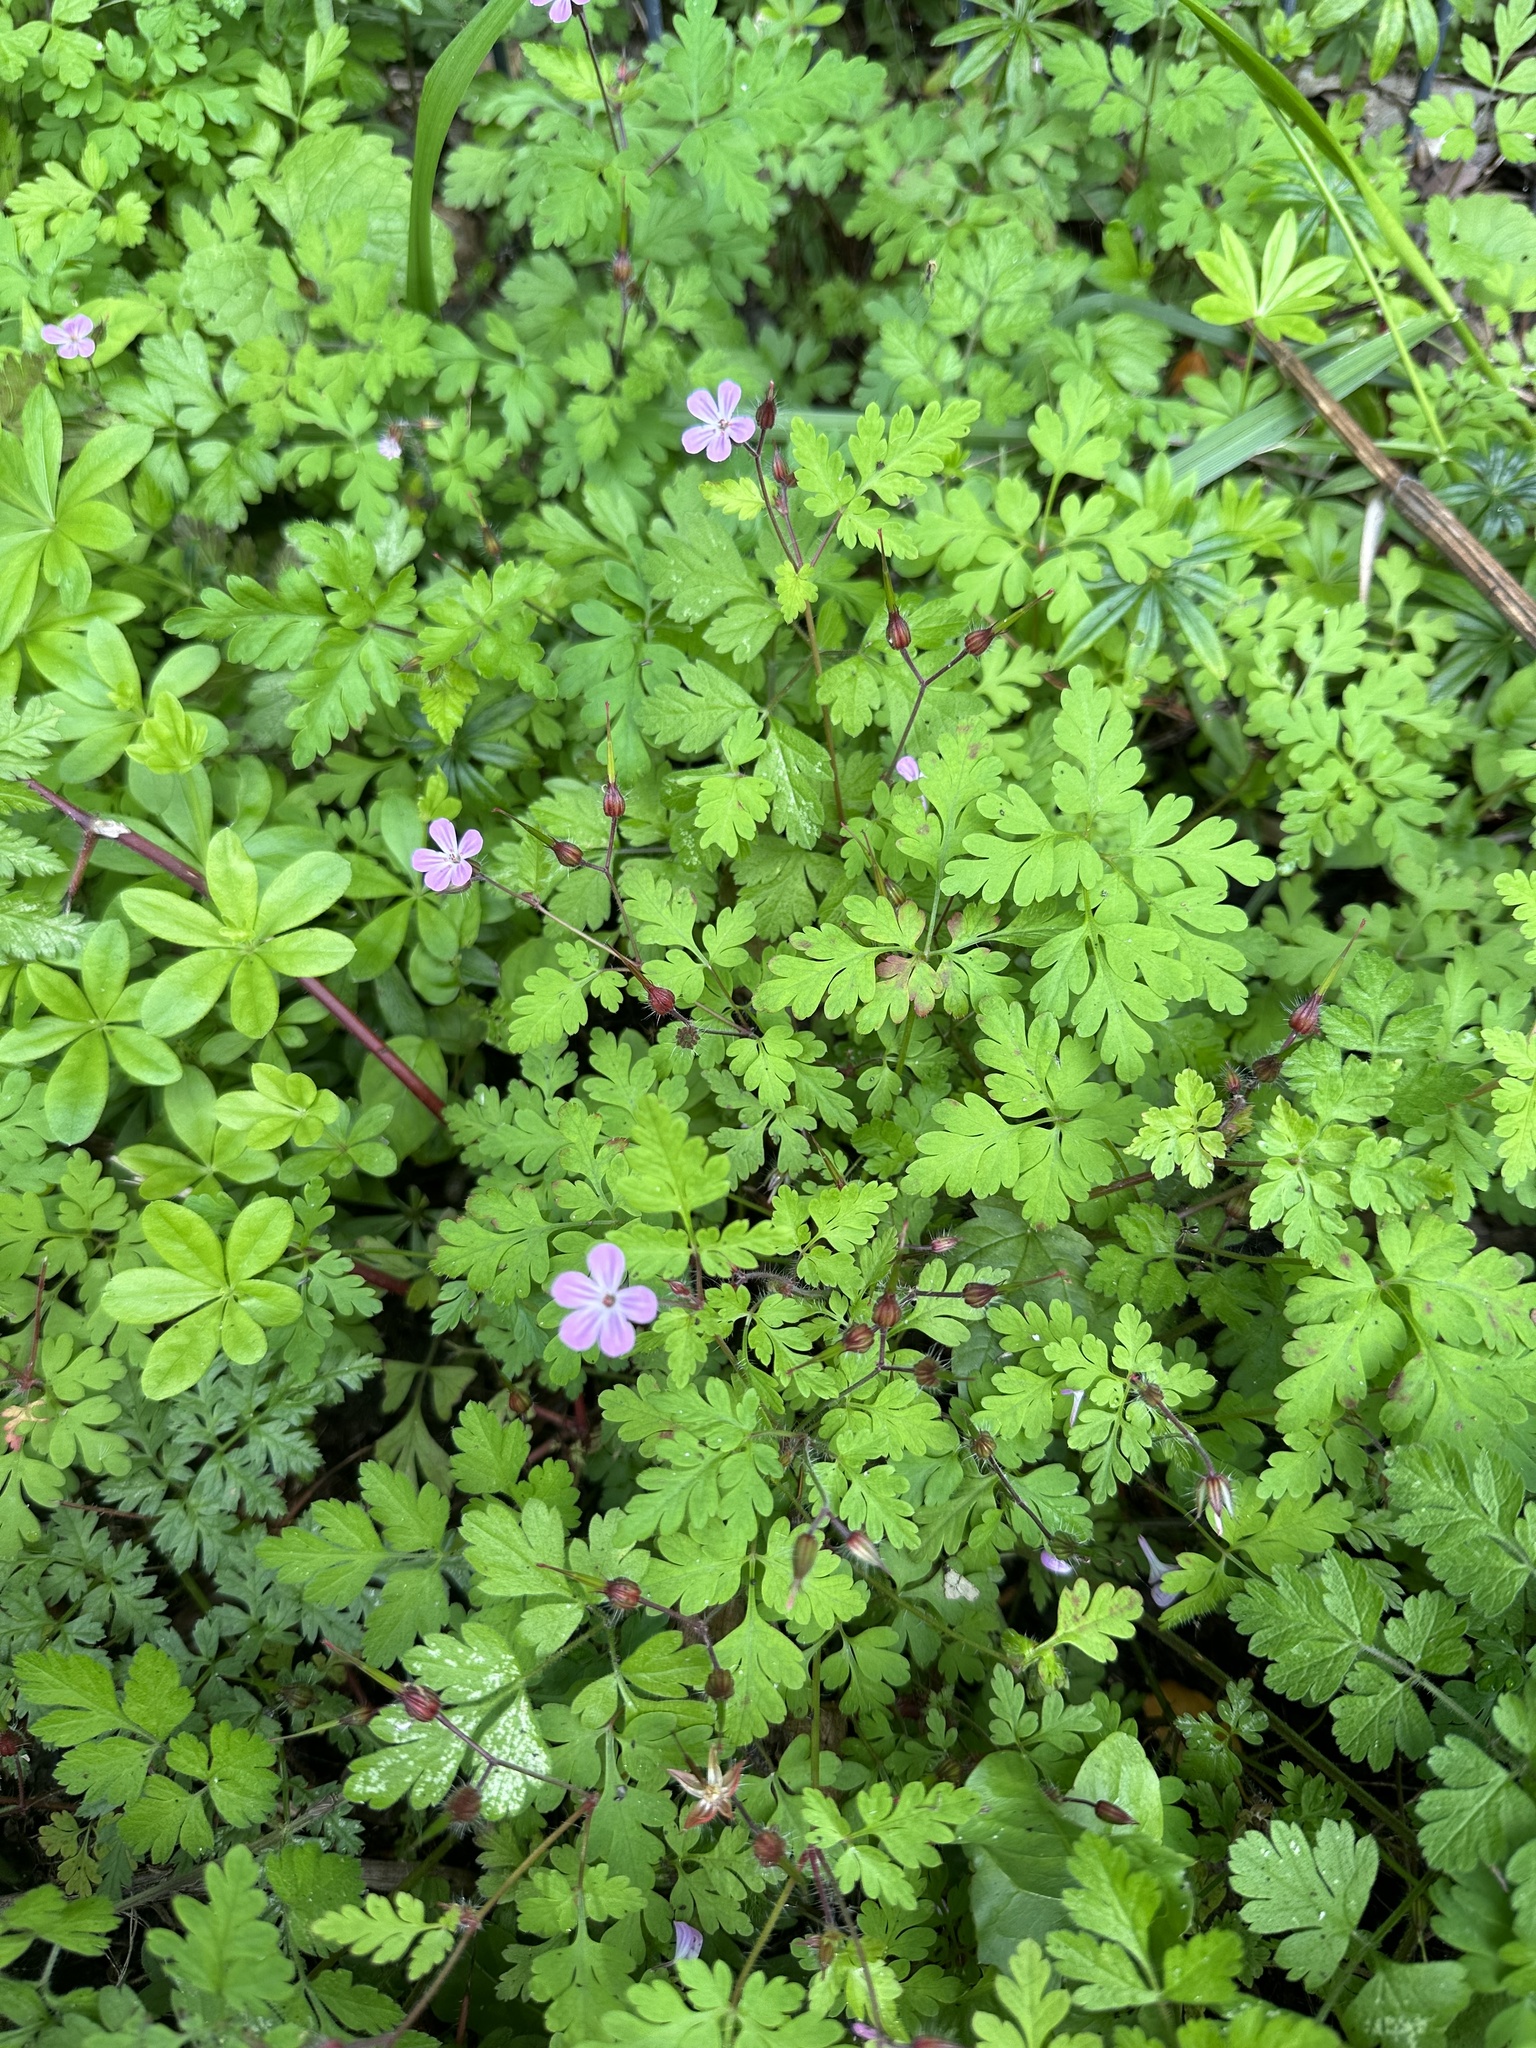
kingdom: Plantae
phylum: Tracheophyta
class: Magnoliopsida
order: Geraniales
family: Geraniaceae
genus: Geranium
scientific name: Geranium robertianum
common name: Herb-robert
